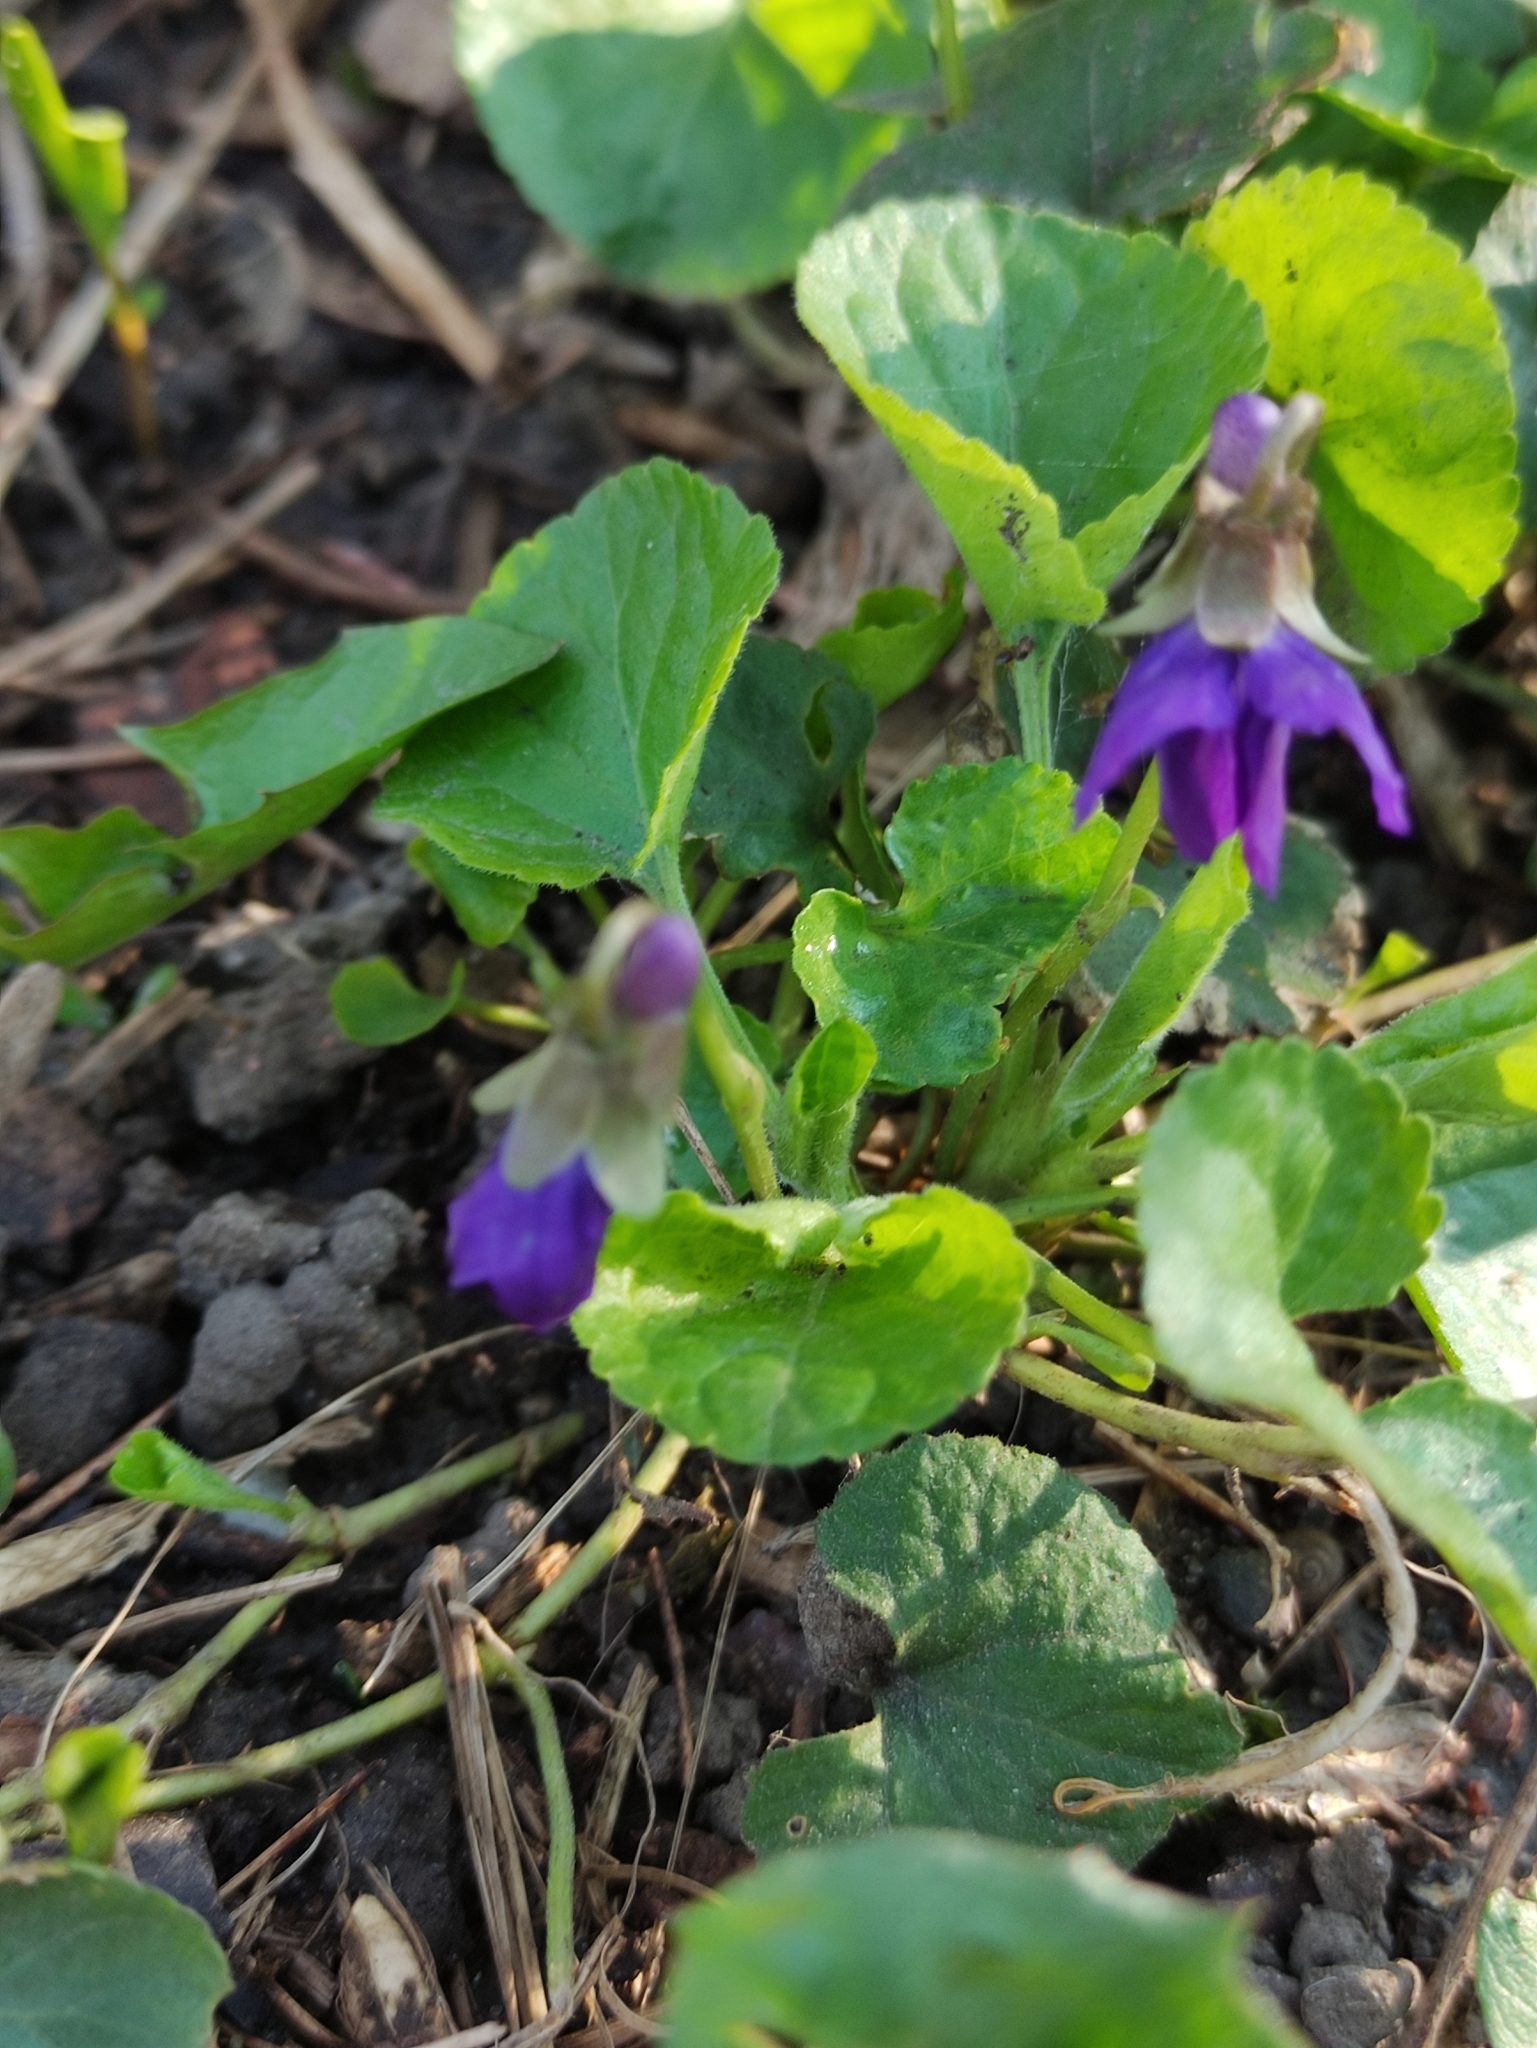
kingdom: Plantae
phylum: Tracheophyta
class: Magnoliopsida
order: Malpighiales
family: Violaceae
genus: Viola
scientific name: Viola odorata
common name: Sweet violet
